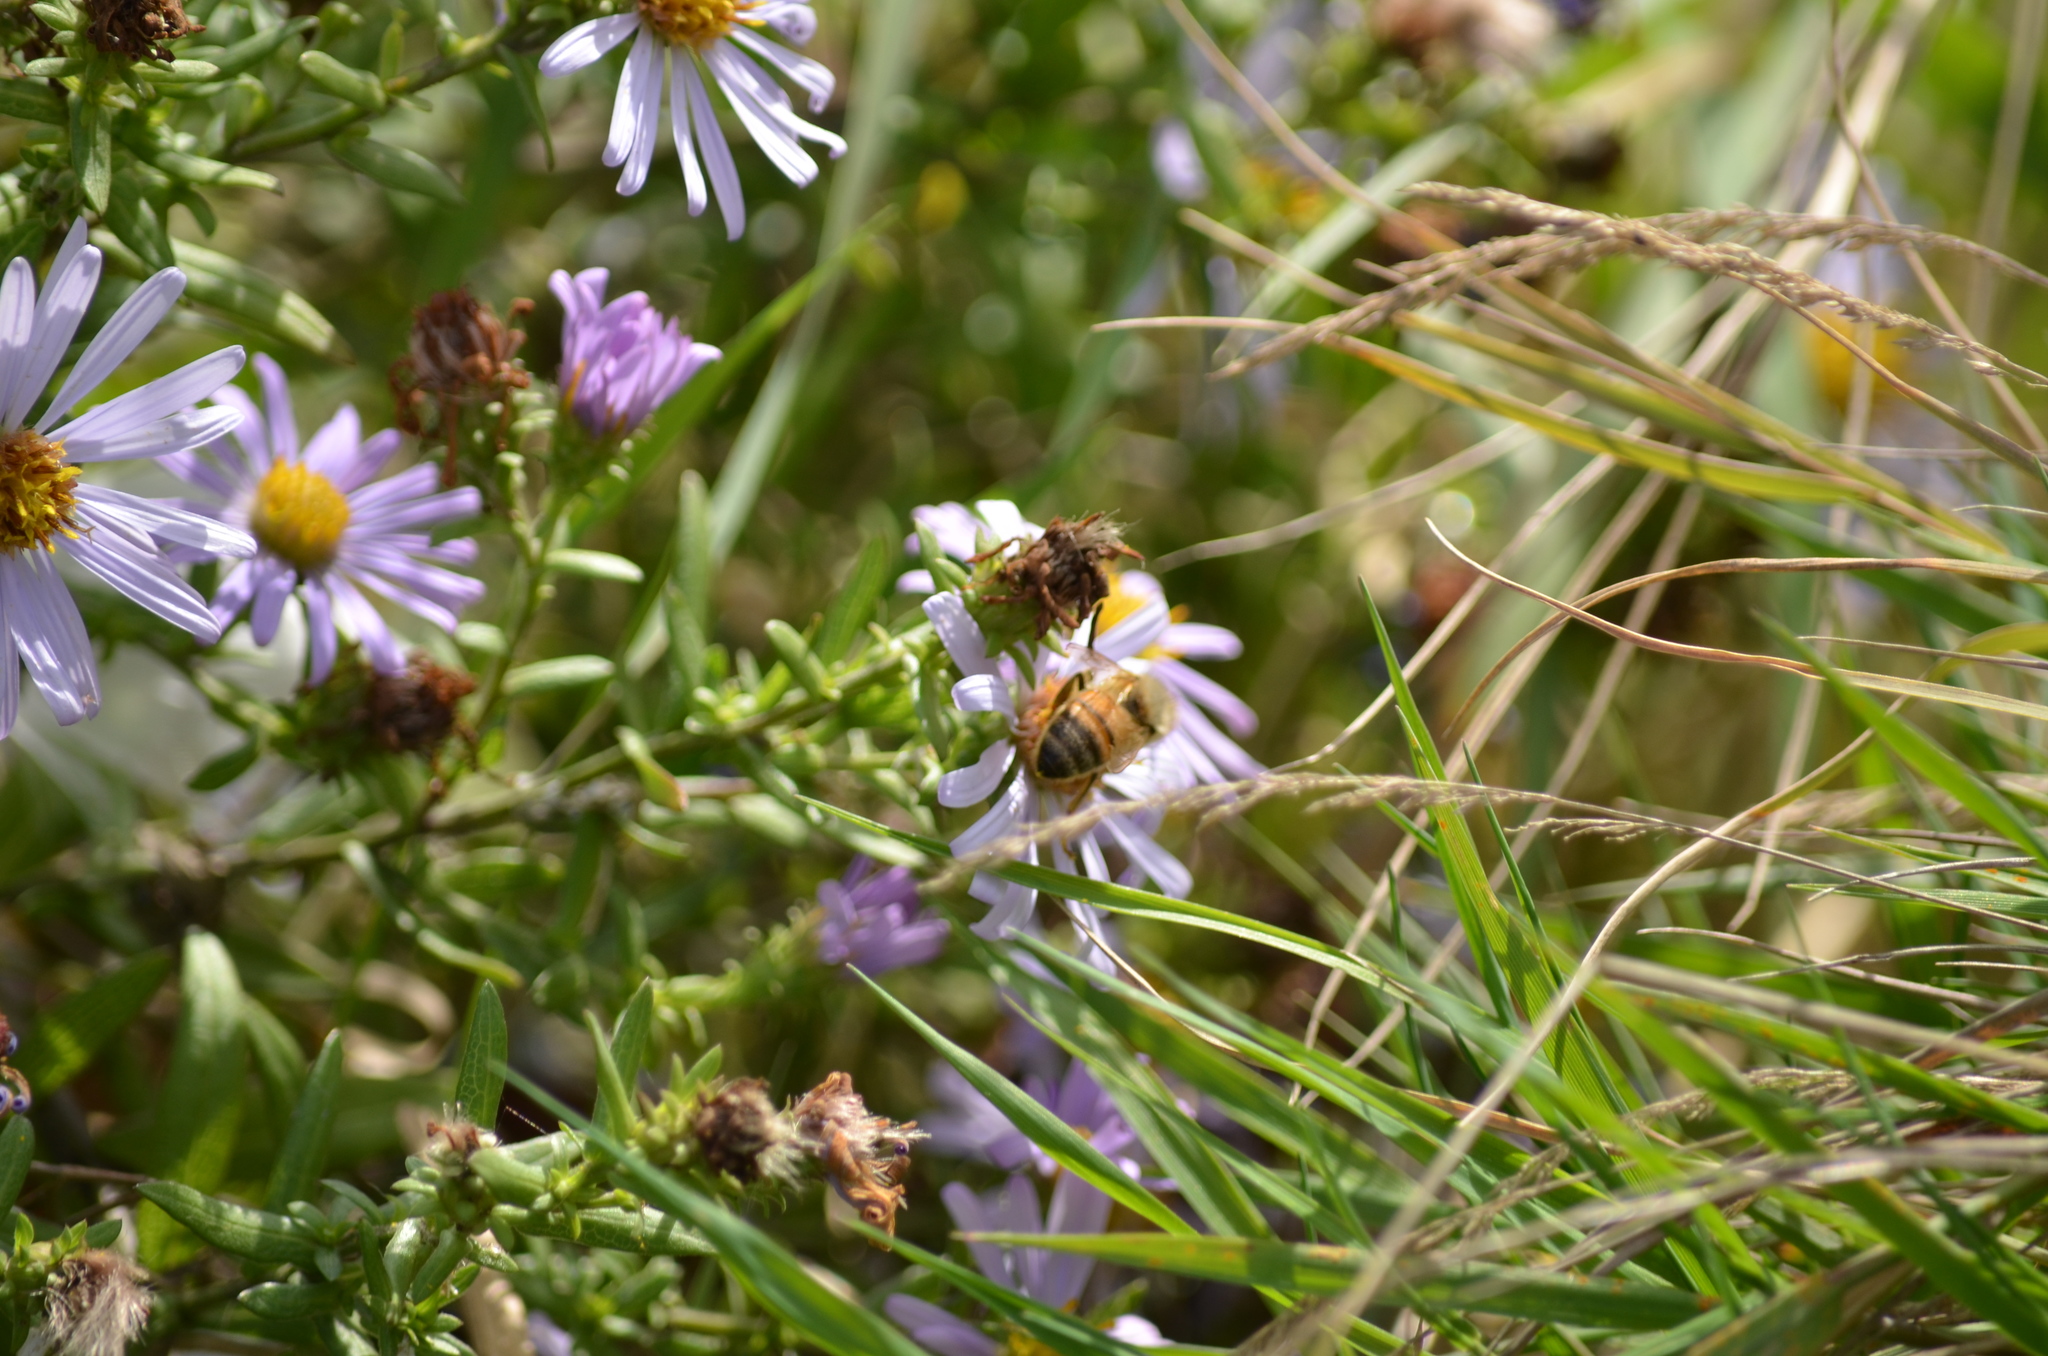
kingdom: Animalia
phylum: Arthropoda
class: Insecta
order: Hymenoptera
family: Apidae
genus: Apis
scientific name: Apis mellifera
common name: Honey bee
